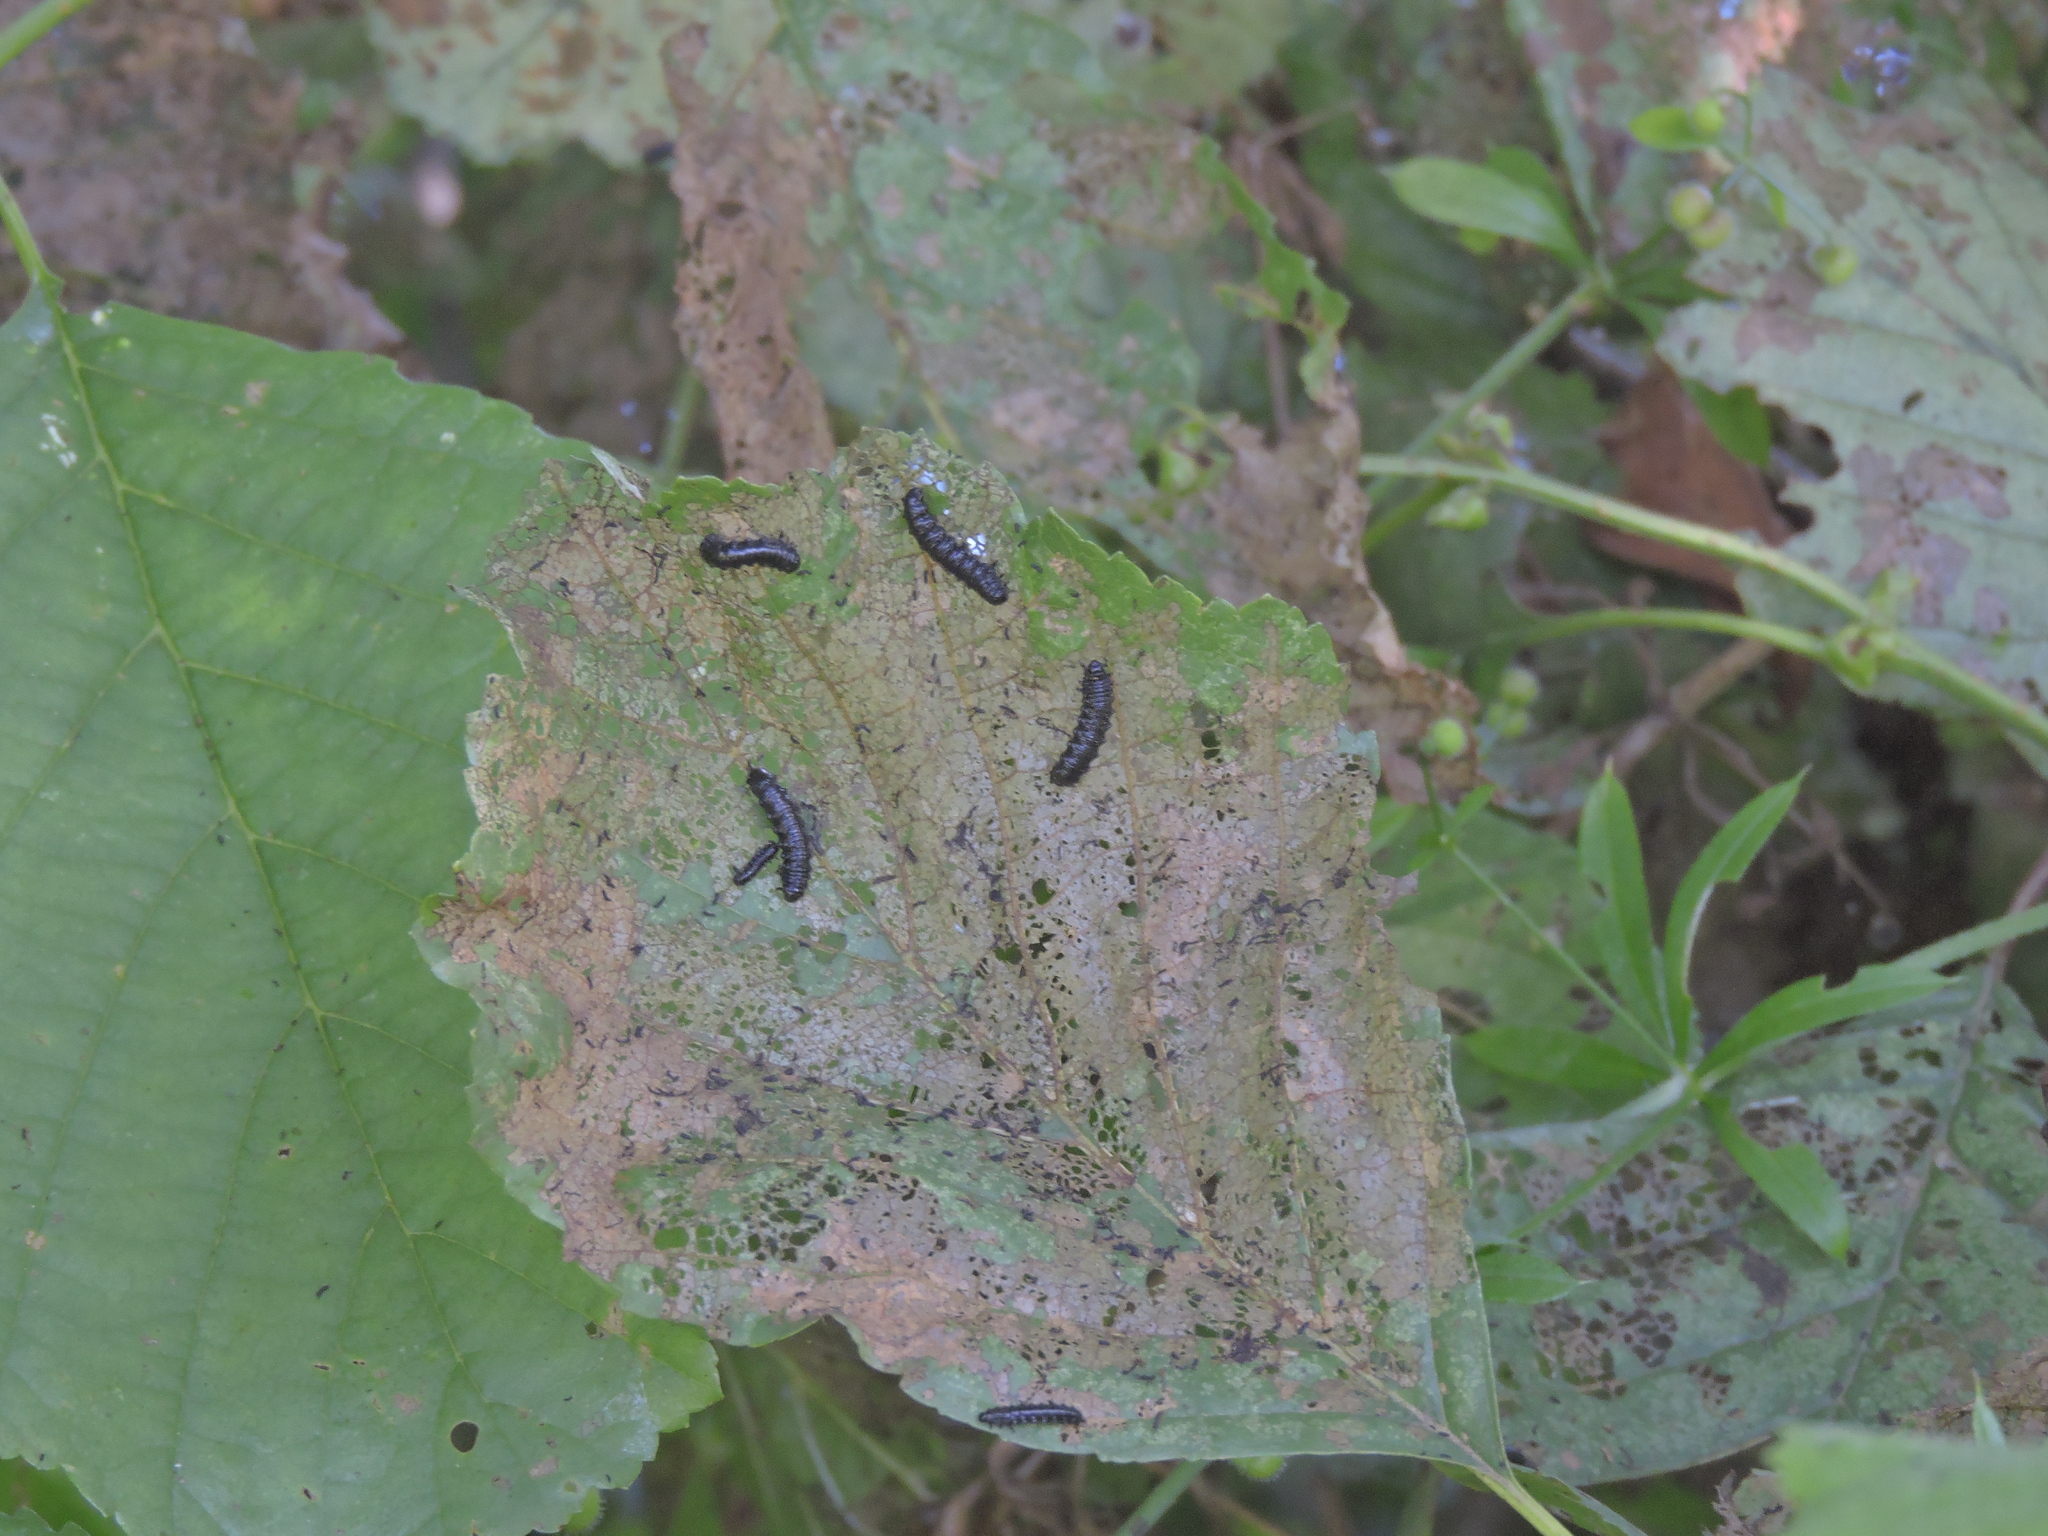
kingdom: Animalia
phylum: Arthropoda
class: Insecta
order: Coleoptera
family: Chrysomelidae
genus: Agelastica
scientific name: Agelastica alni
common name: Alder leaf beetle
